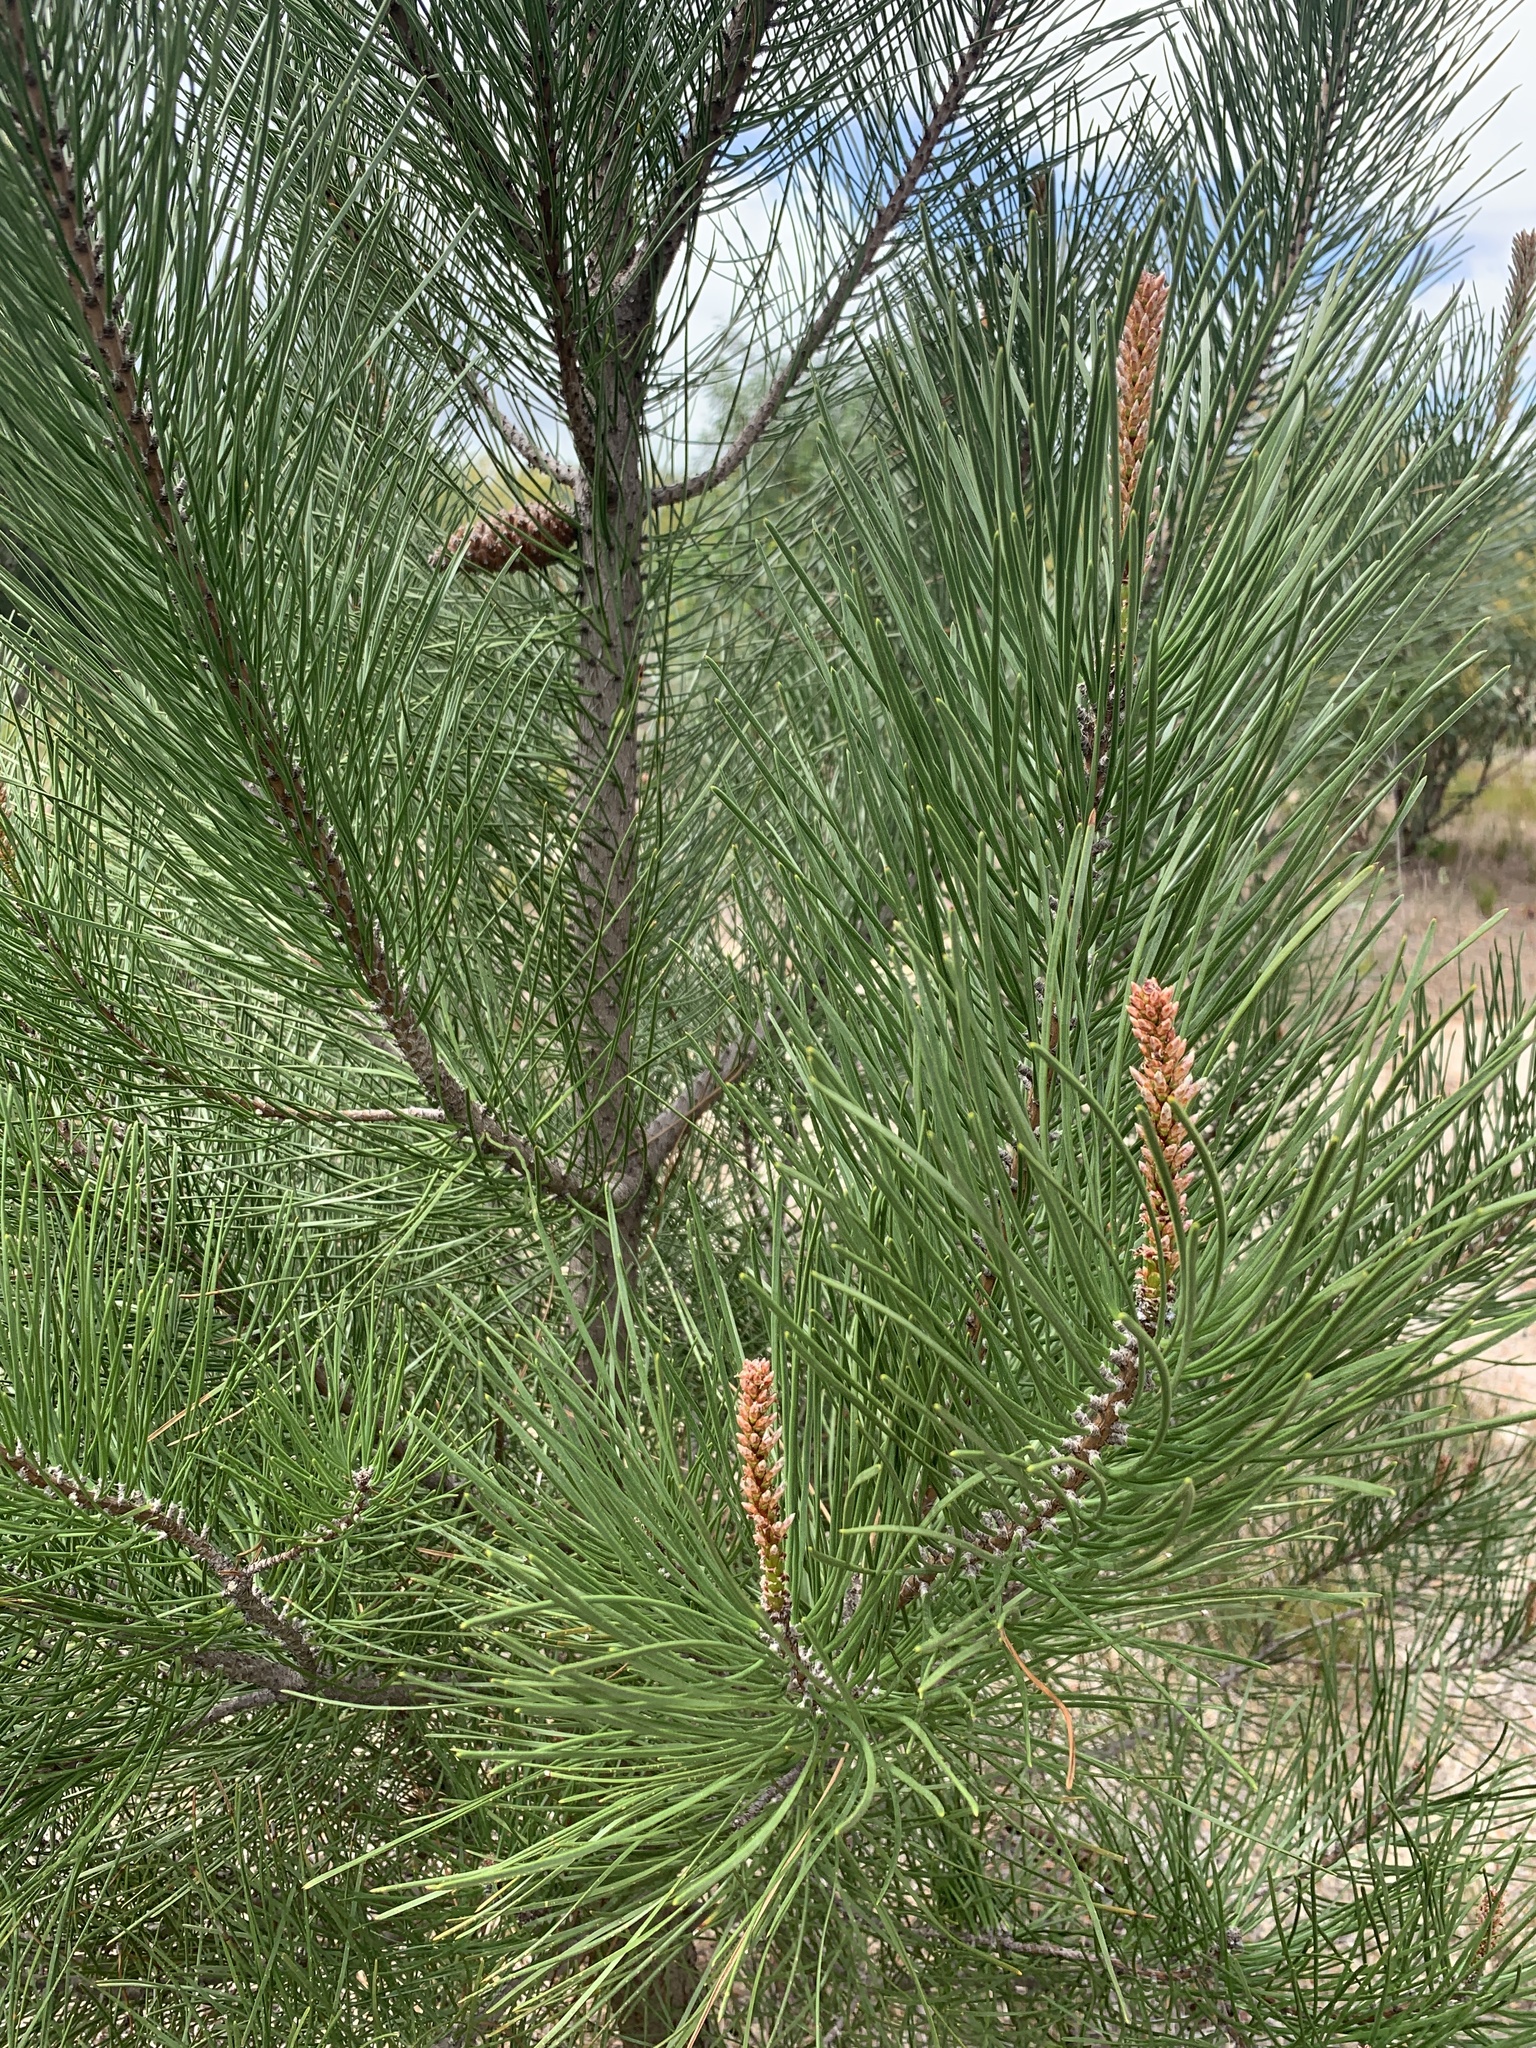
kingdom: Plantae
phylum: Tracheophyta
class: Pinopsida
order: Pinales
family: Pinaceae
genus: Pinus
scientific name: Pinus pinaster
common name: Maritime pine
